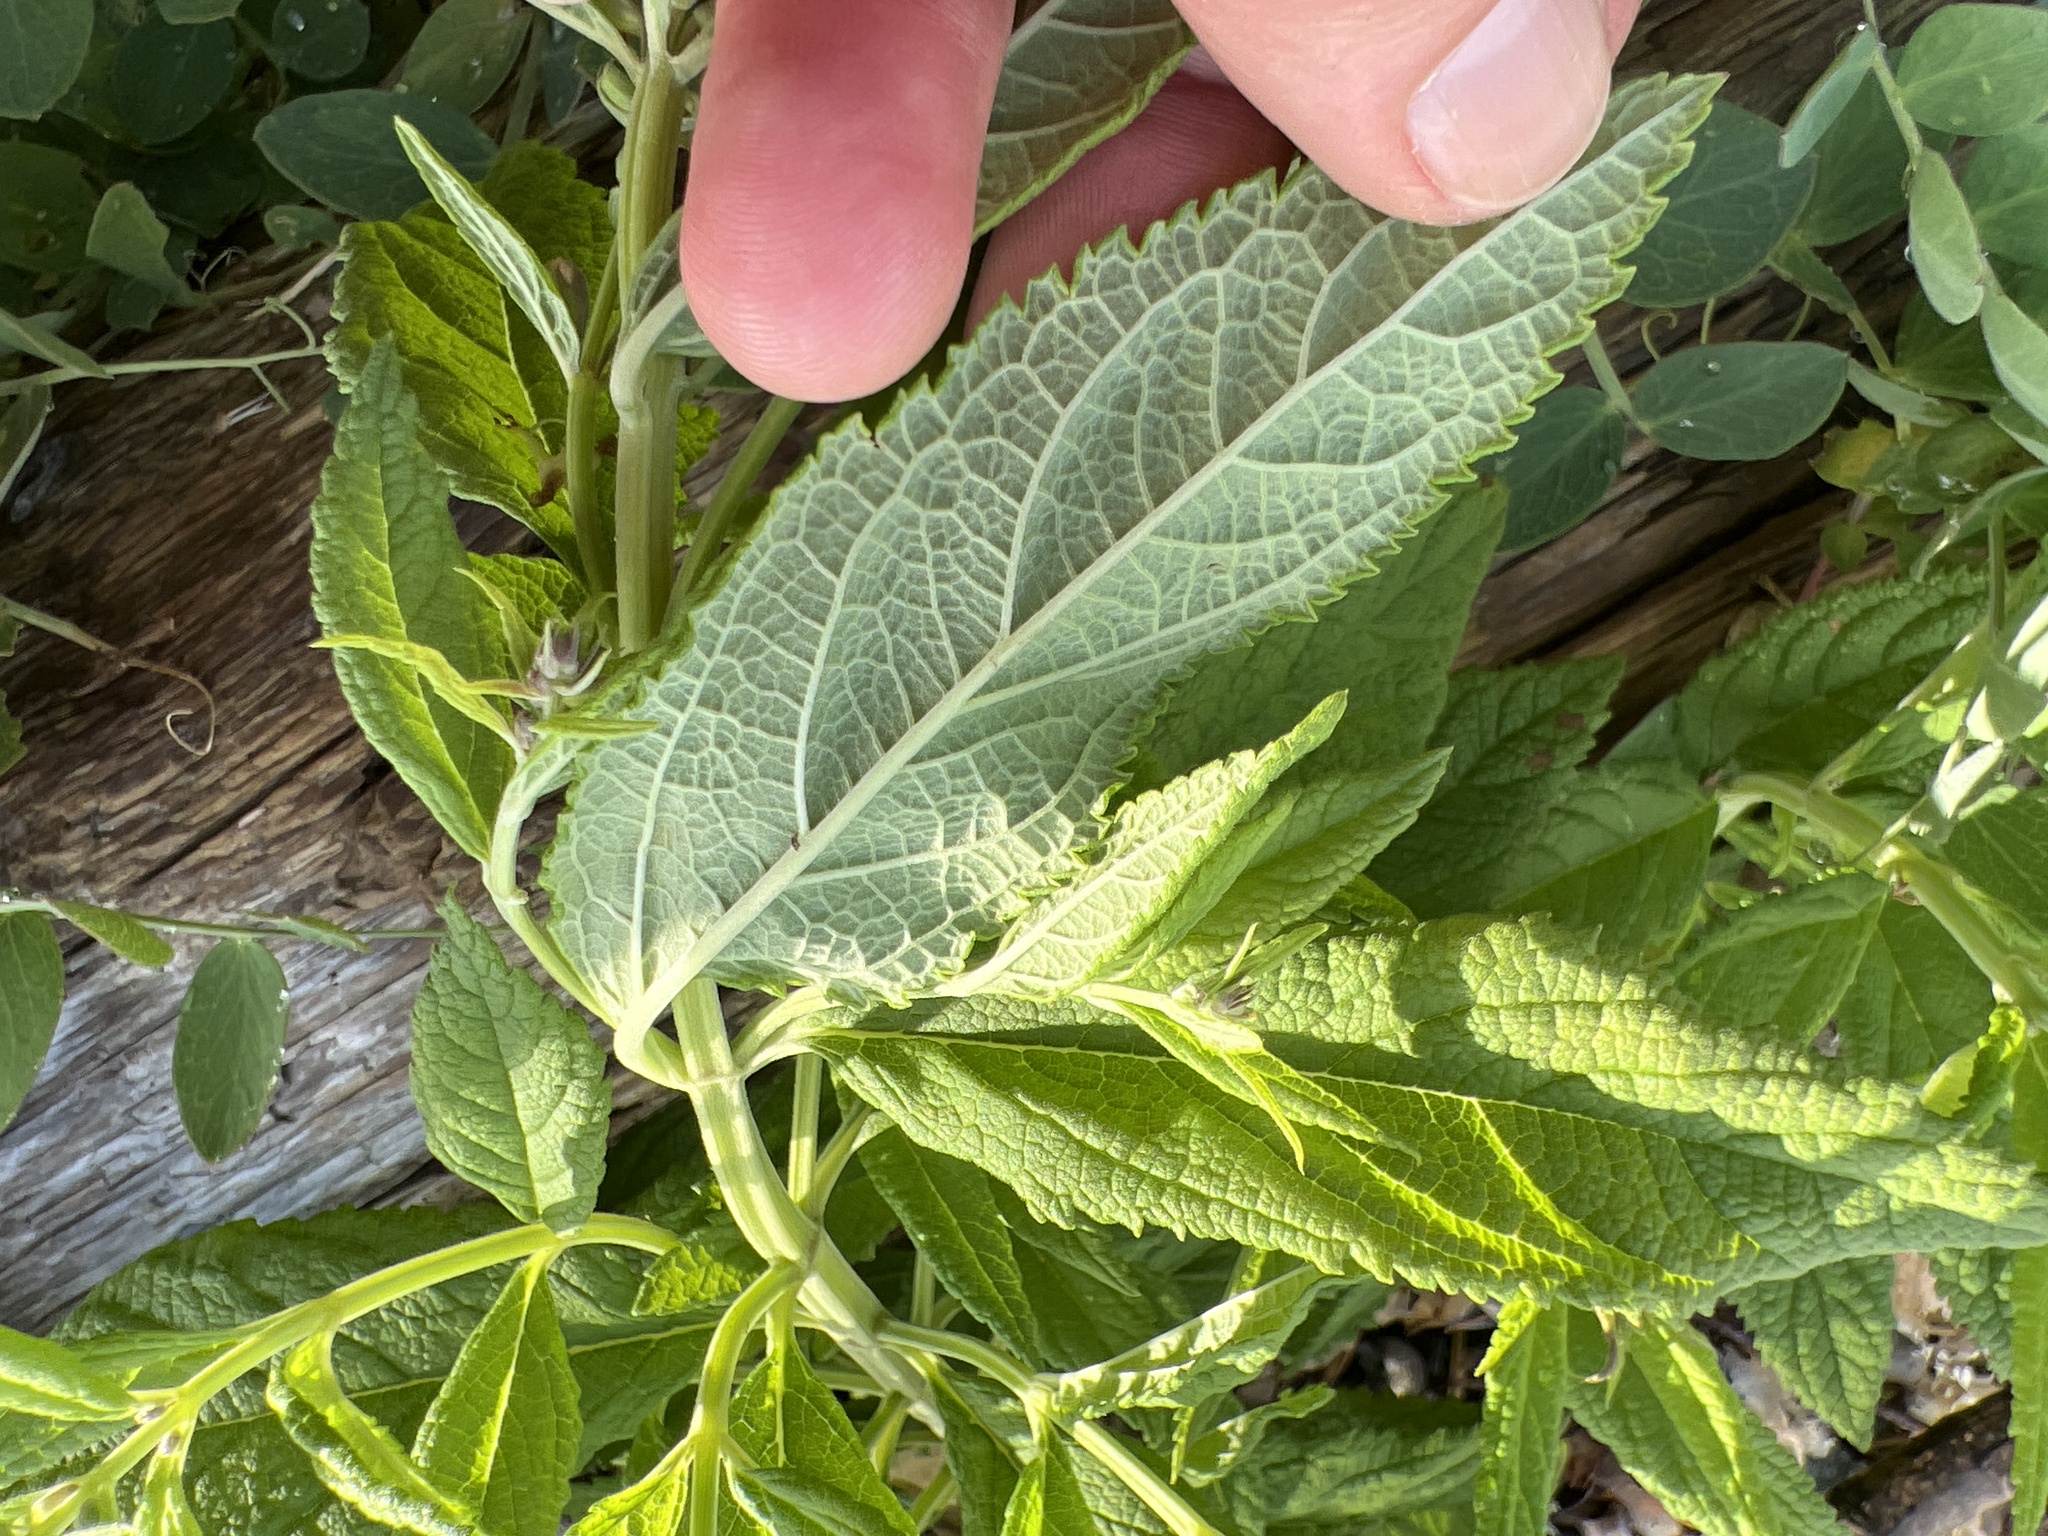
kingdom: Plantae
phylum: Tracheophyta
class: Magnoliopsida
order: Lamiales
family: Lamiaceae
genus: Teucrium
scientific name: Teucrium canadense
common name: American germander
